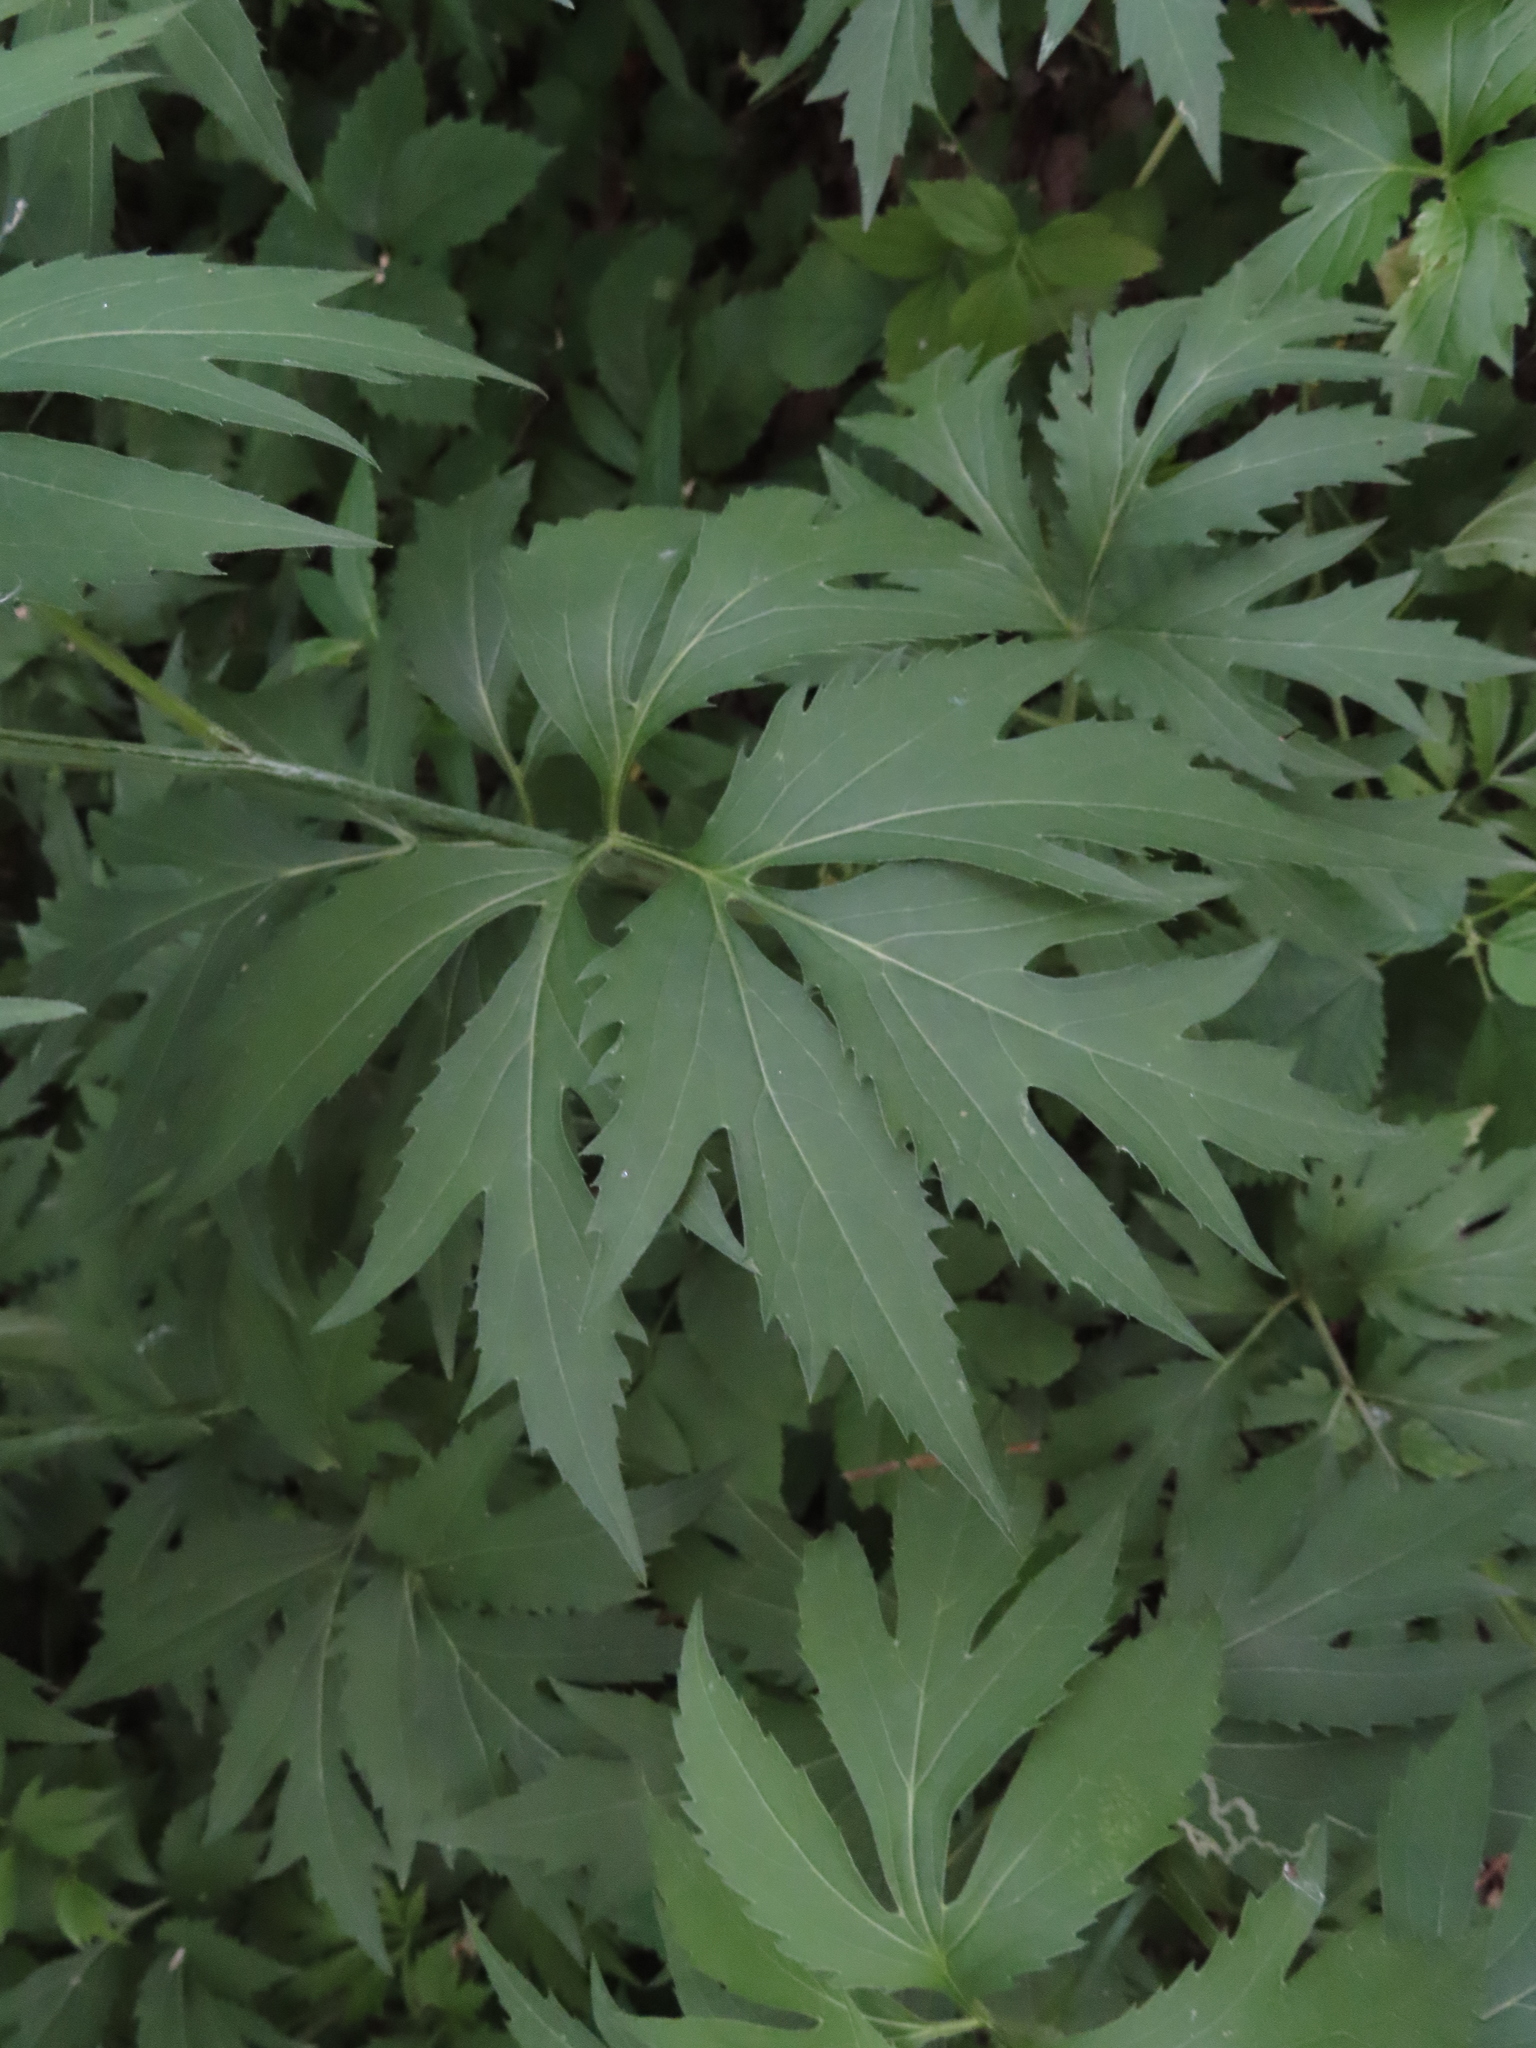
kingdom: Plantae
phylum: Tracheophyta
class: Magnoliopsida
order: Asterales
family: Asteraceae
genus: Rudbeckia
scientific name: Rudbeckia laciniata
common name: Coneflower
